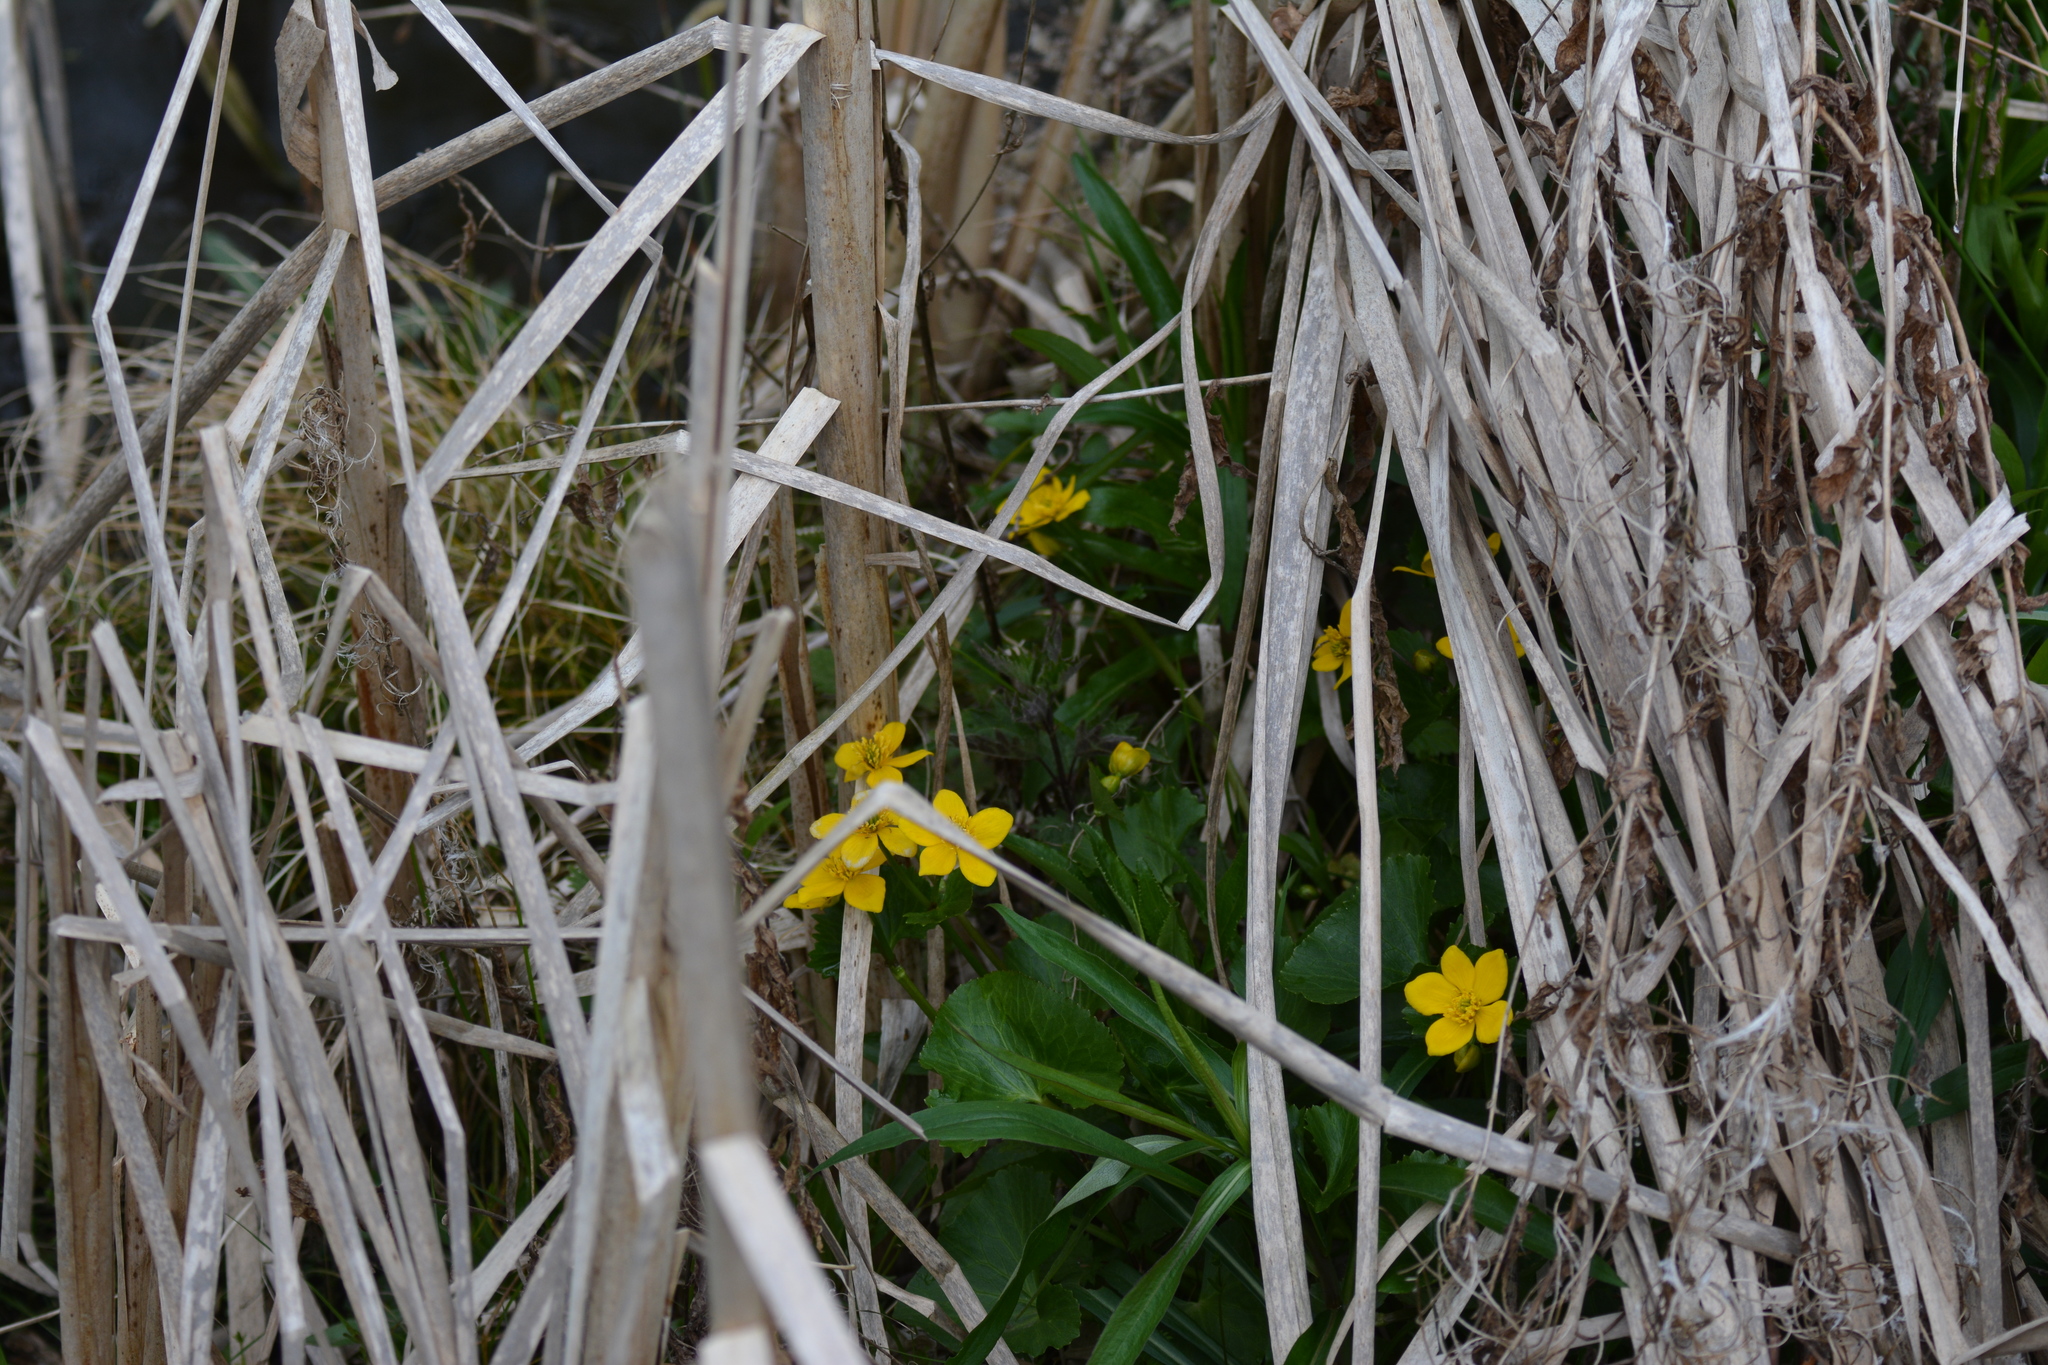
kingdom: Plantae
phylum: Tracheophyta
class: Magnoliopsida
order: Ranunculales
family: Ranunculaceae
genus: Caltha
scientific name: Caltha palustris
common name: Marsh marigold
